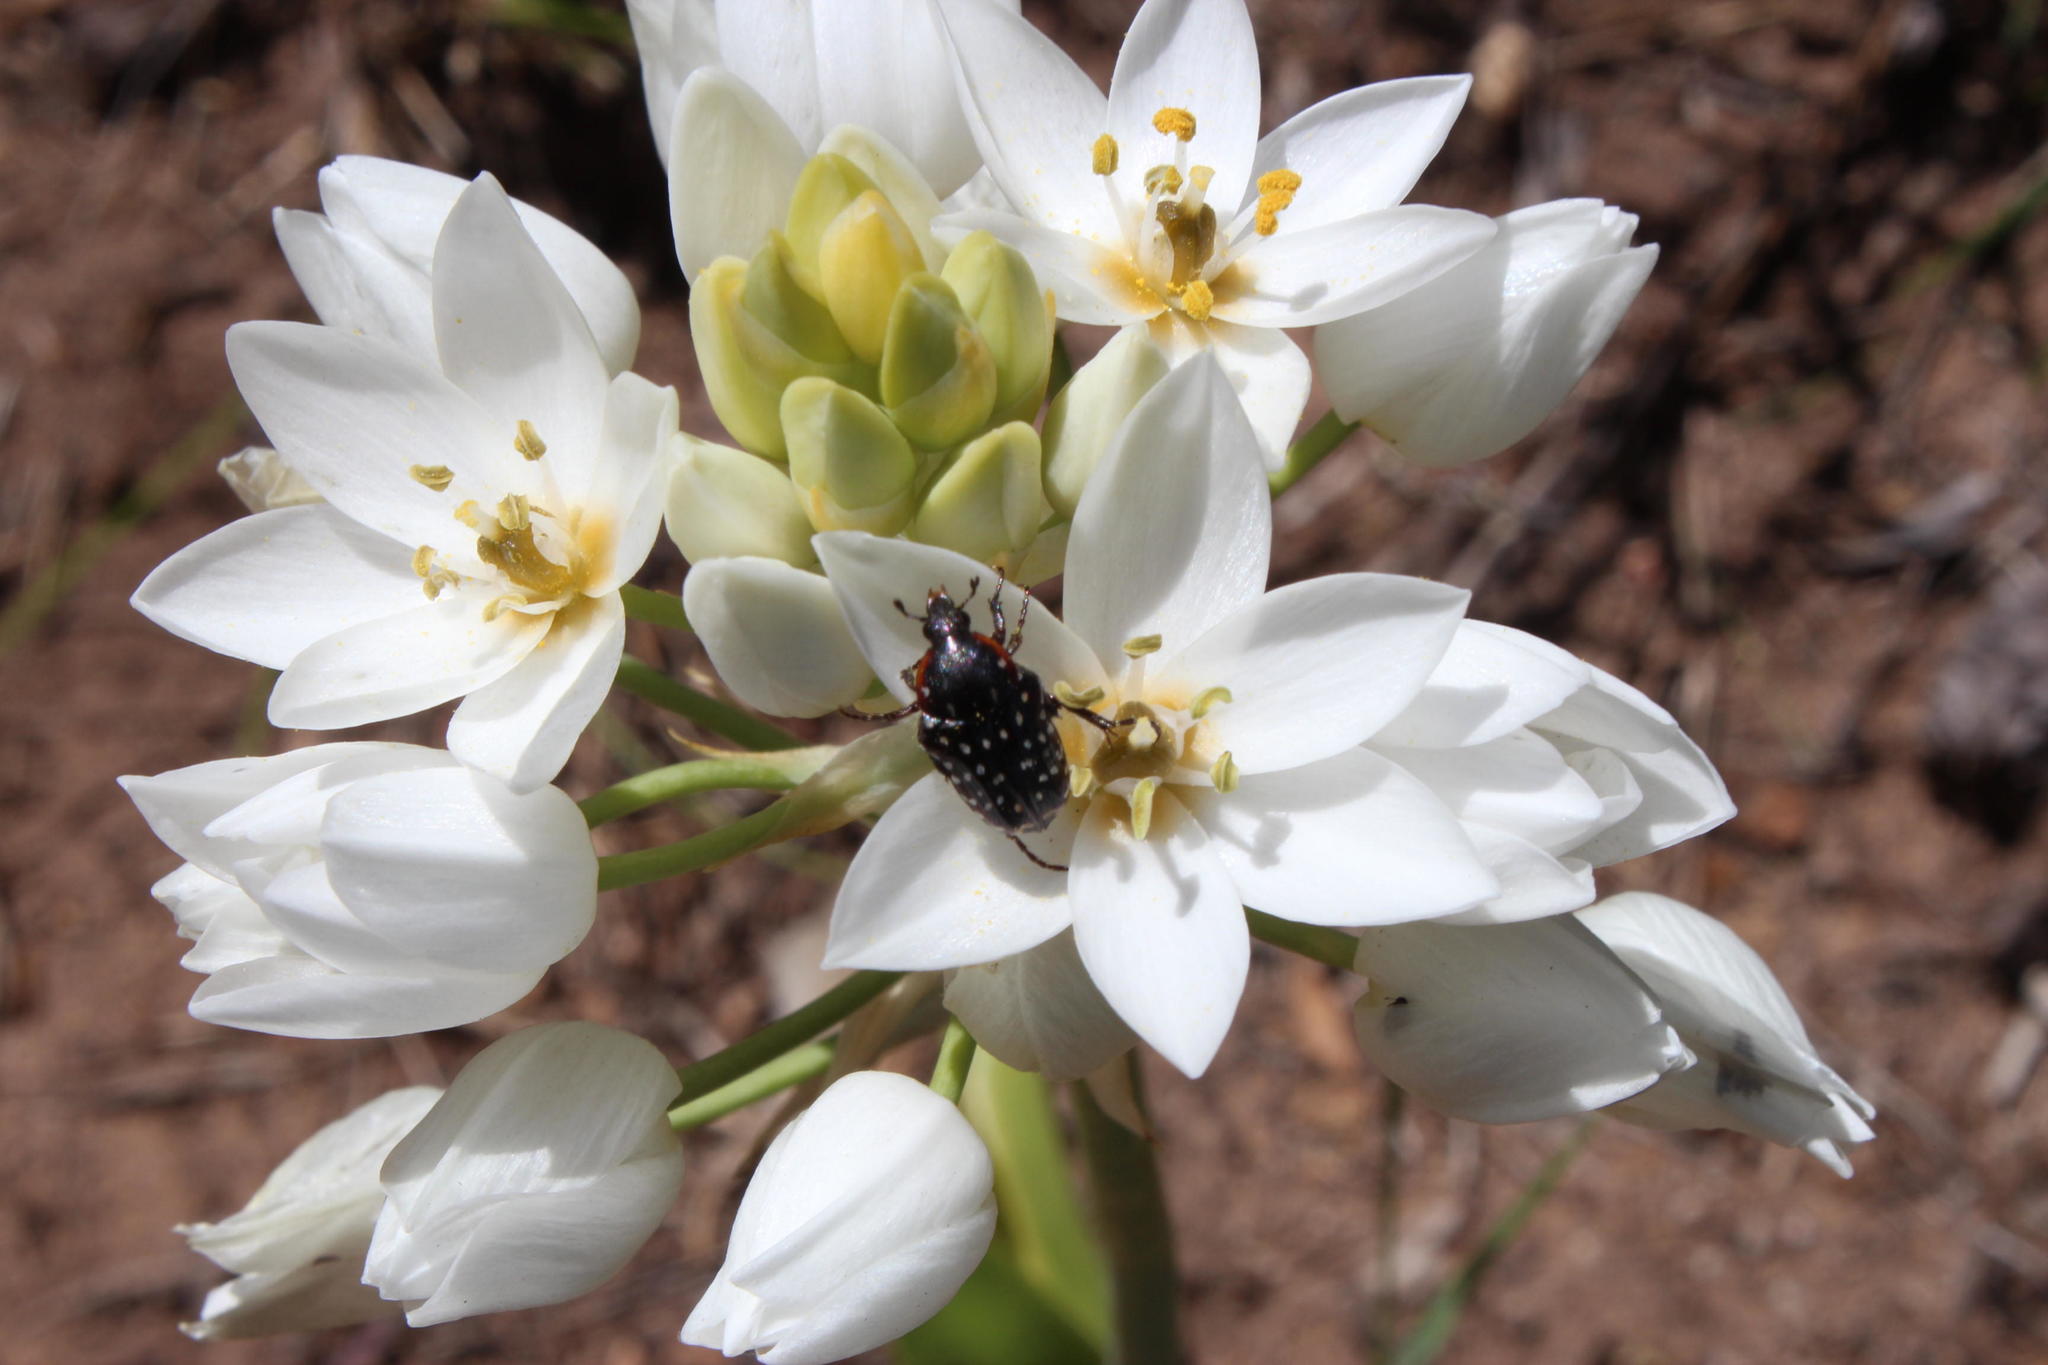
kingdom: Plantae
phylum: Tracheophyta
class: Liliopsida
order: Asparagales
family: Asparagaceae
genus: Ornithogalum
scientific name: Ornithogalum thyrsoides
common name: Chincherinchee
